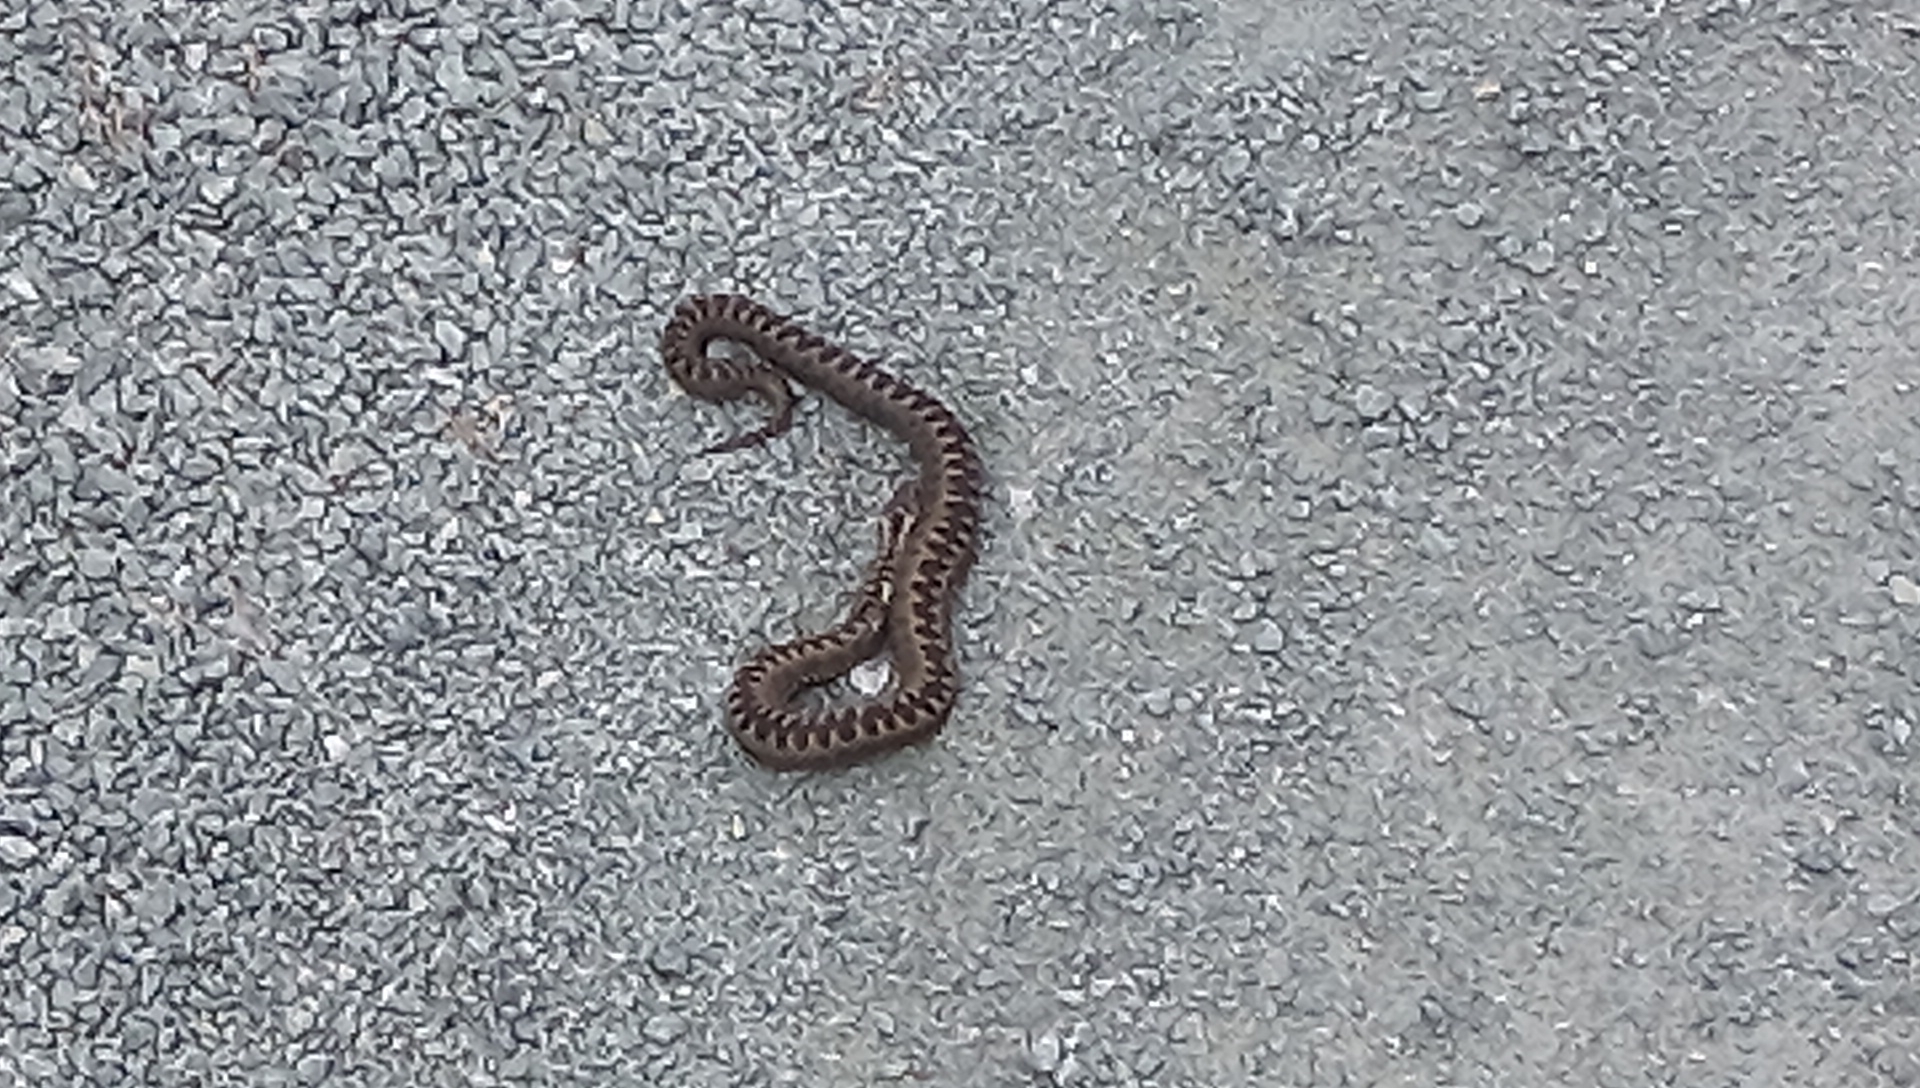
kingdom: Animalia
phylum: Chordata
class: Squamata
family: Viperidae
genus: Vipera
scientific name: Vipera berus
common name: Adder
